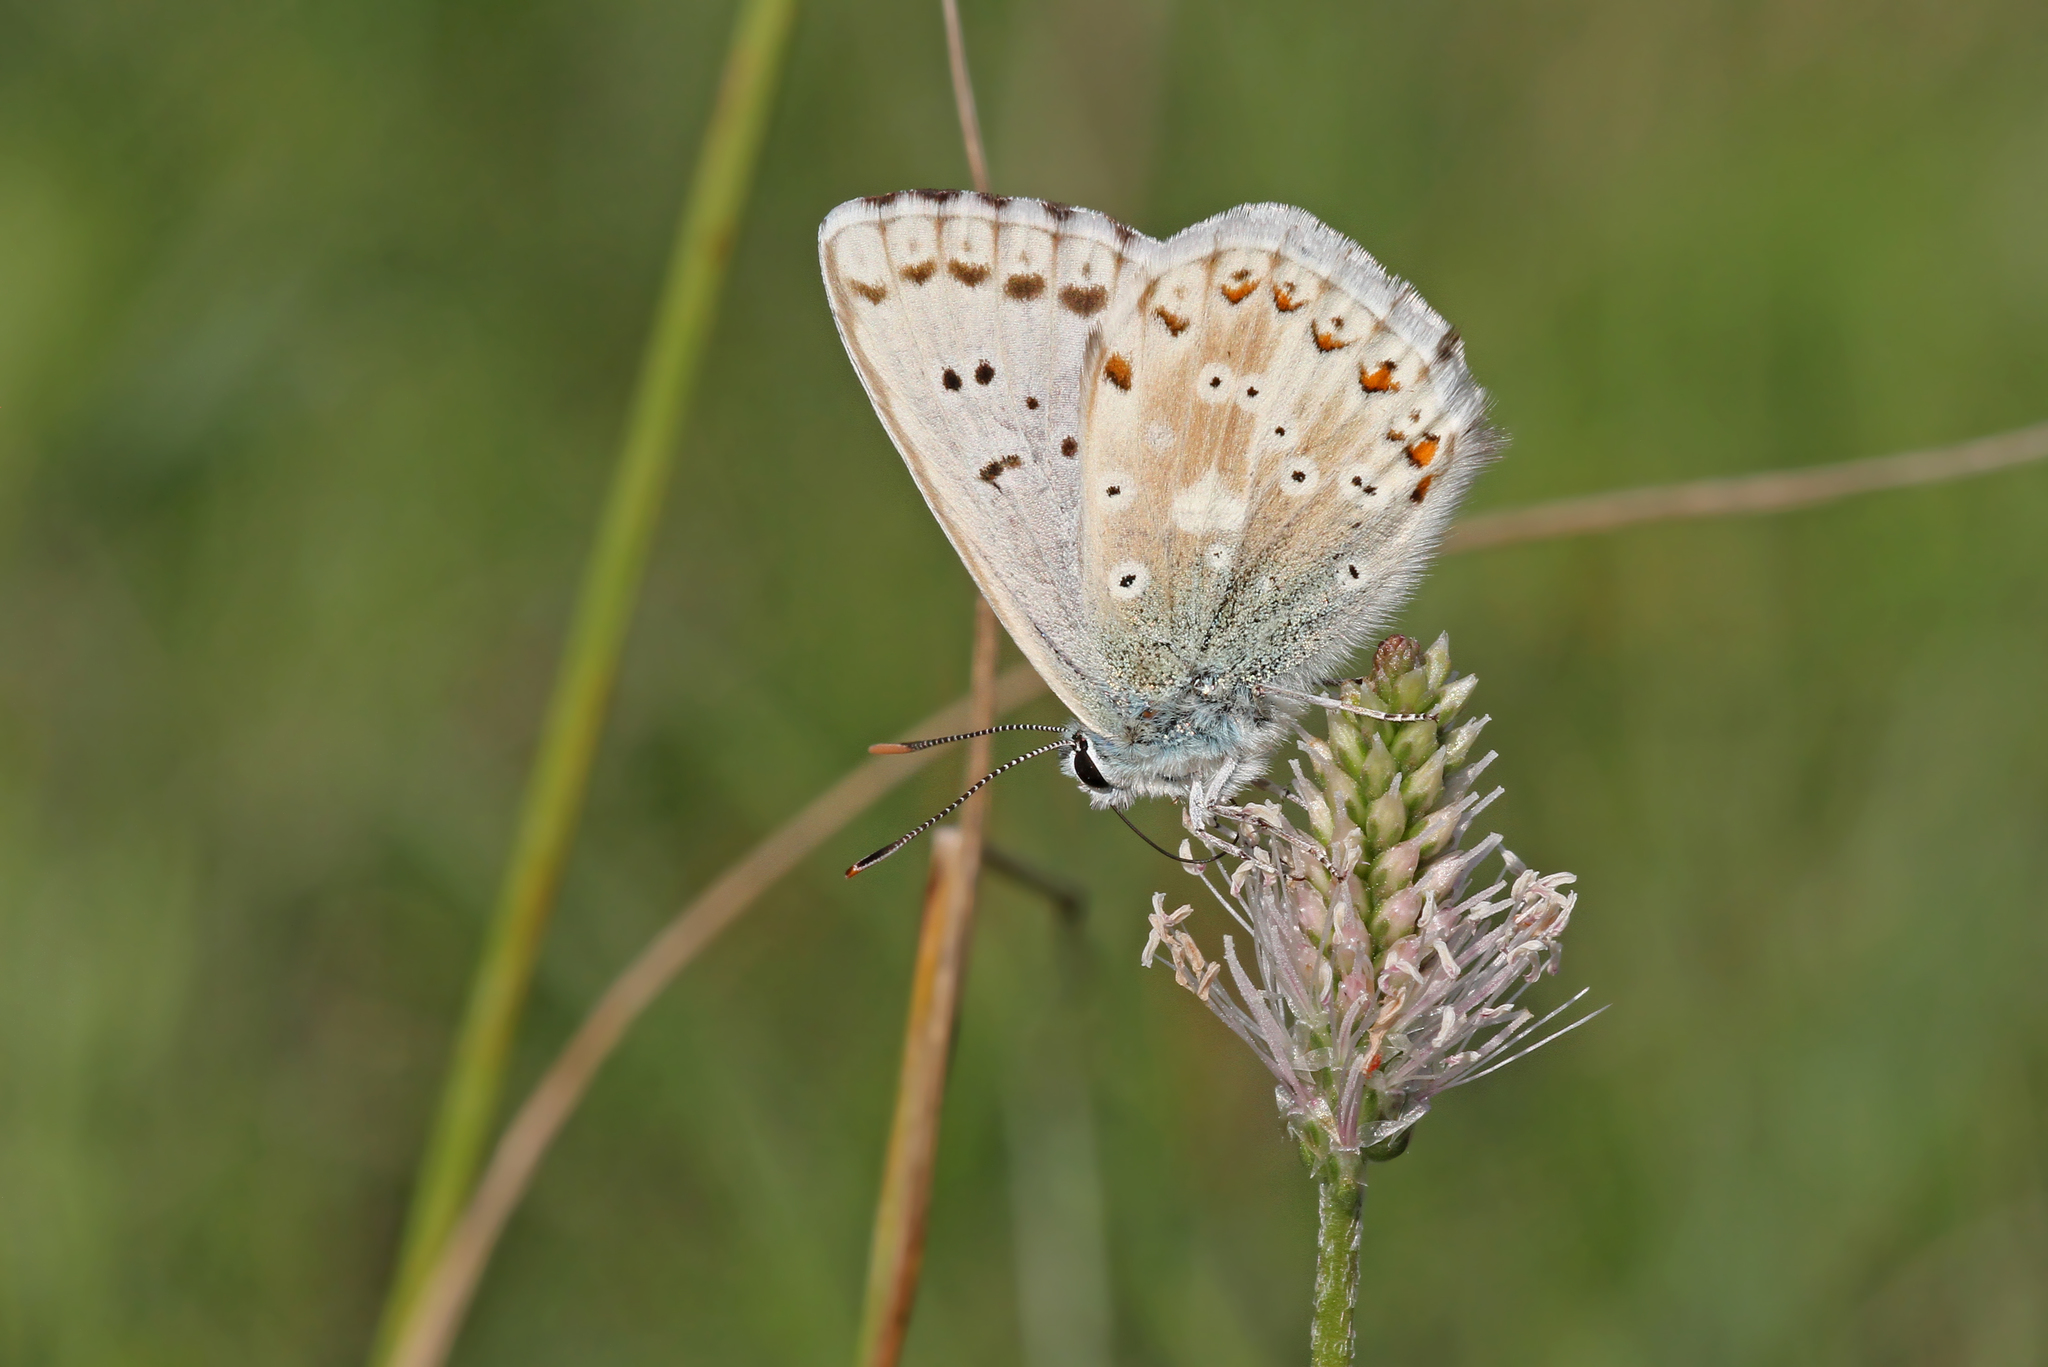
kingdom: Animalia
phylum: Arthropoda
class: Insecta
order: Lepidoptera
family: Lycaenidae
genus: Lysandra
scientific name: Lysandra coridon
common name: Chalkhill blue
